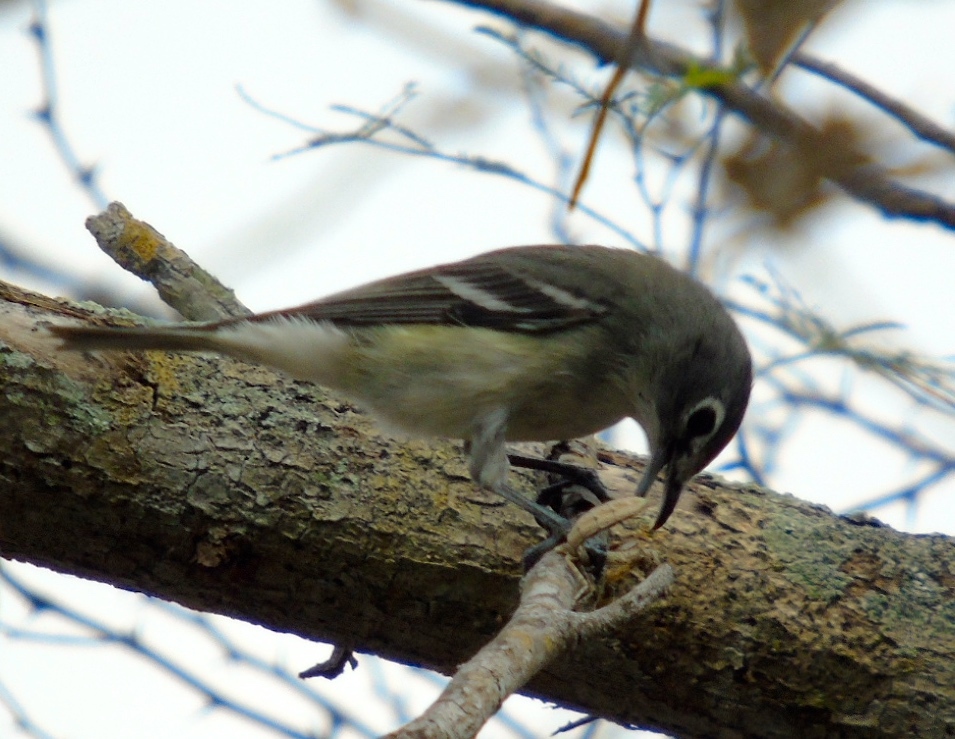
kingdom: Animalia
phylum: Chordata
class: Aves
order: Passeriformes
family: Vireonidae
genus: Vireo
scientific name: Vireo cassinii
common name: Cassin's vireo
